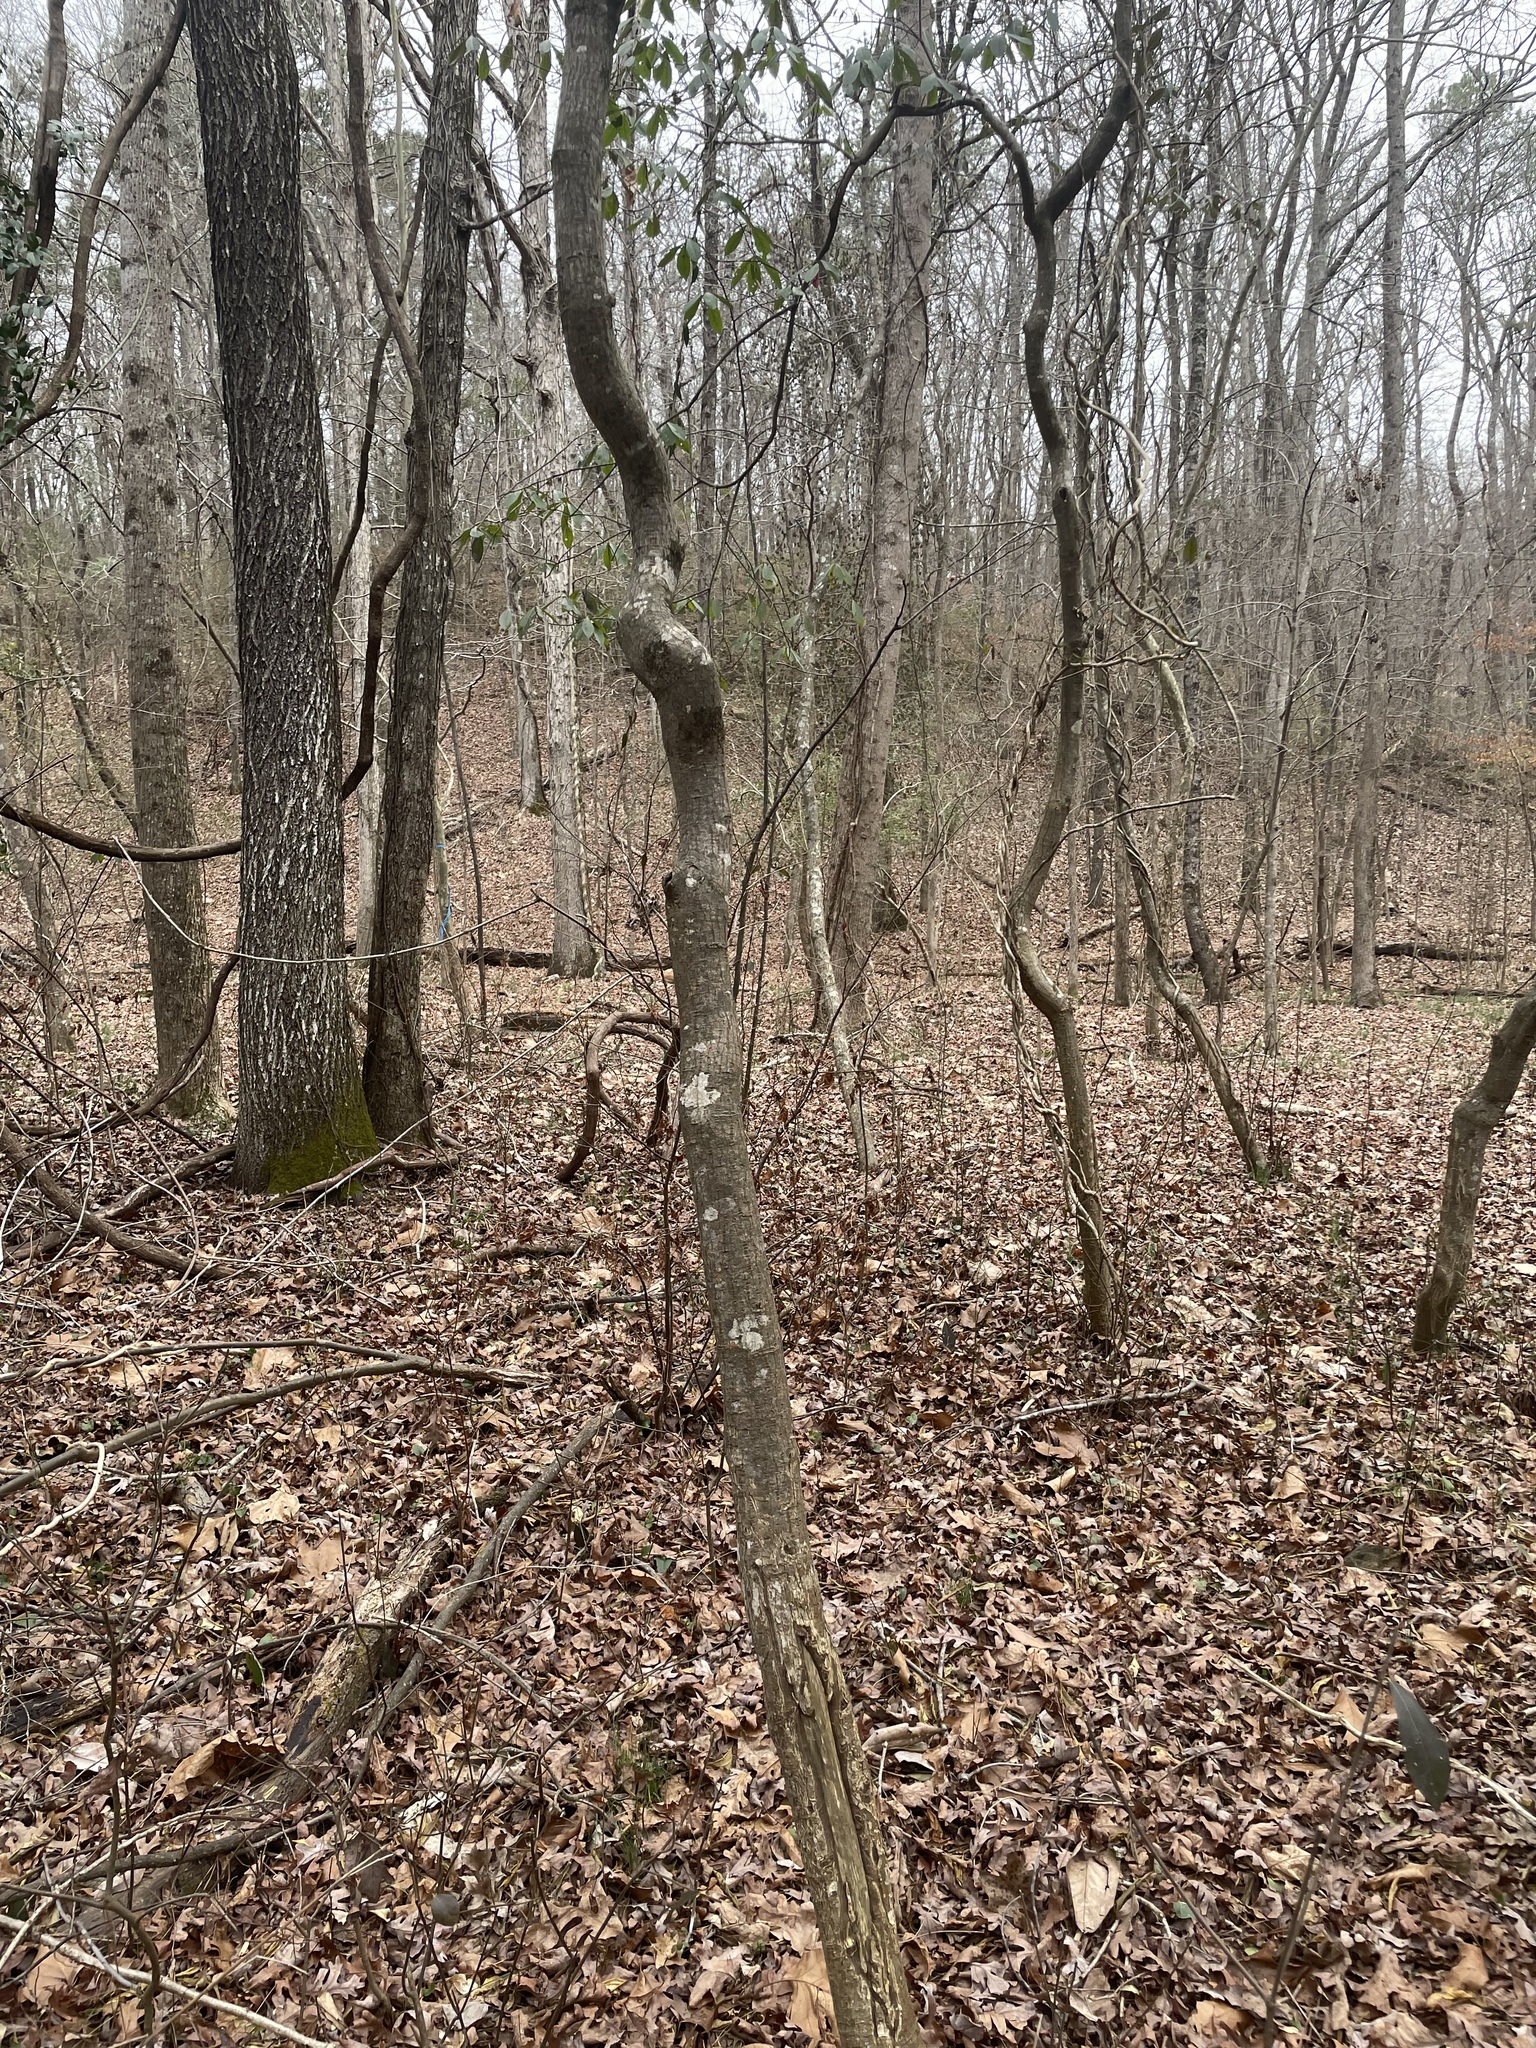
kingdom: Plantae
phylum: Tracheophyta
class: Magnoliopsida
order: Ericales
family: Symplocaceae
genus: Symplocos
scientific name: Symplocos tinctoria
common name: Horse-sugar
